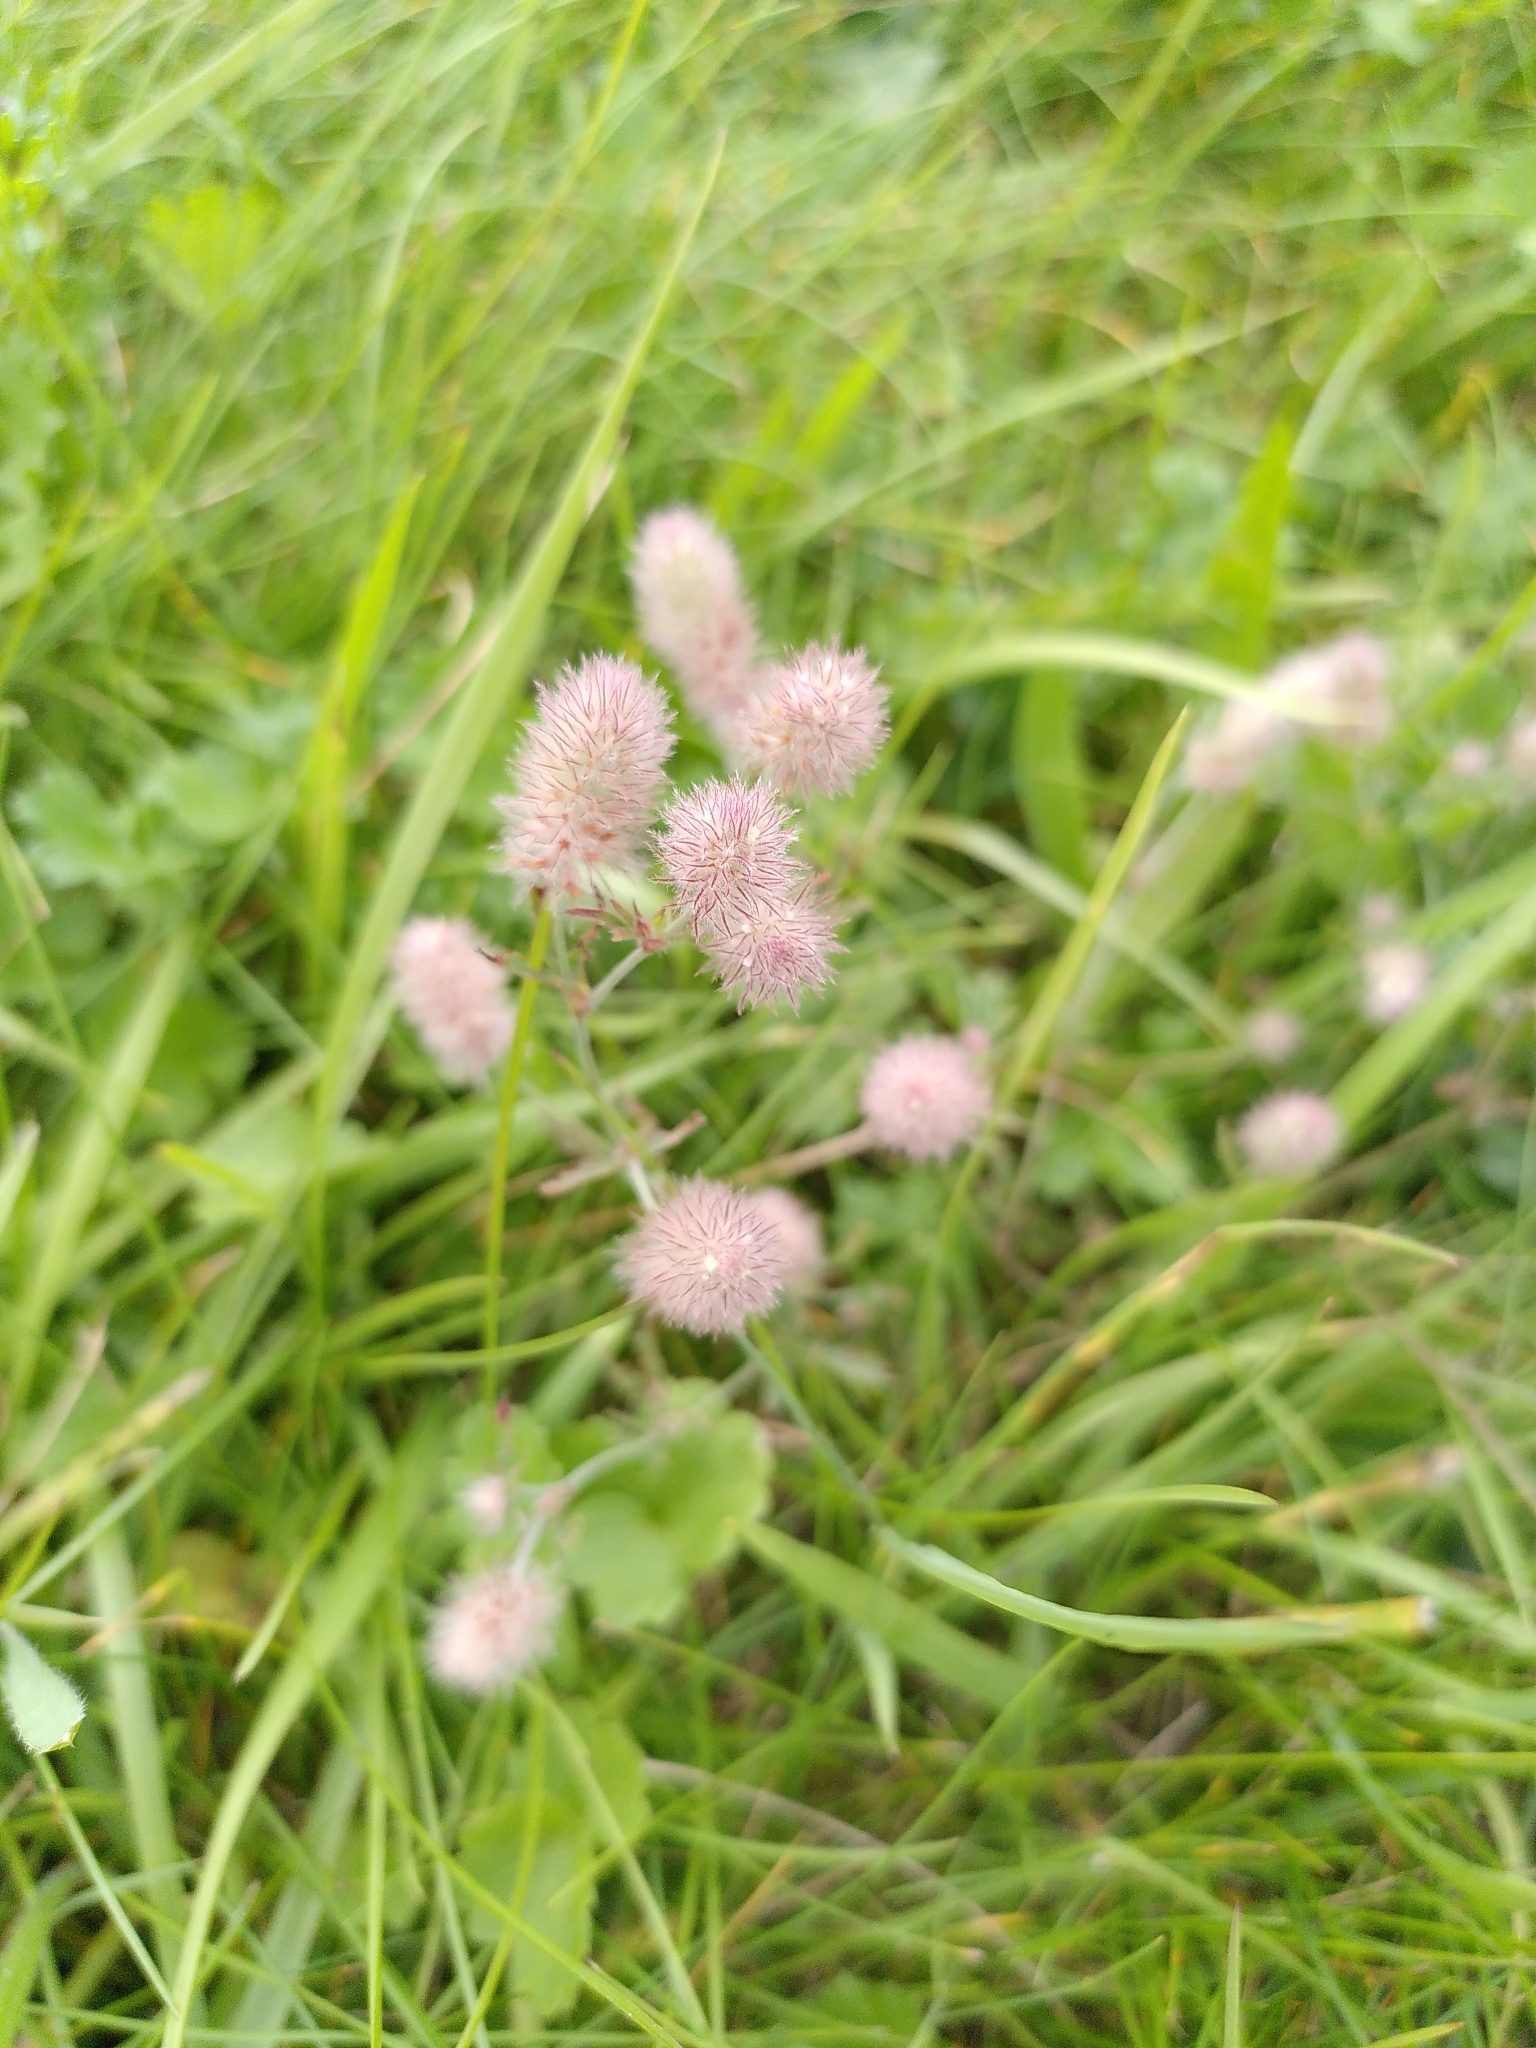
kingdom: Plantae
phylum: Tracheophyta
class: Magnoliopsida
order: Fabales
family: Fabaceae
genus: Trifolium
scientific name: Trifolium arvense
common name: Hare's-foot clover
